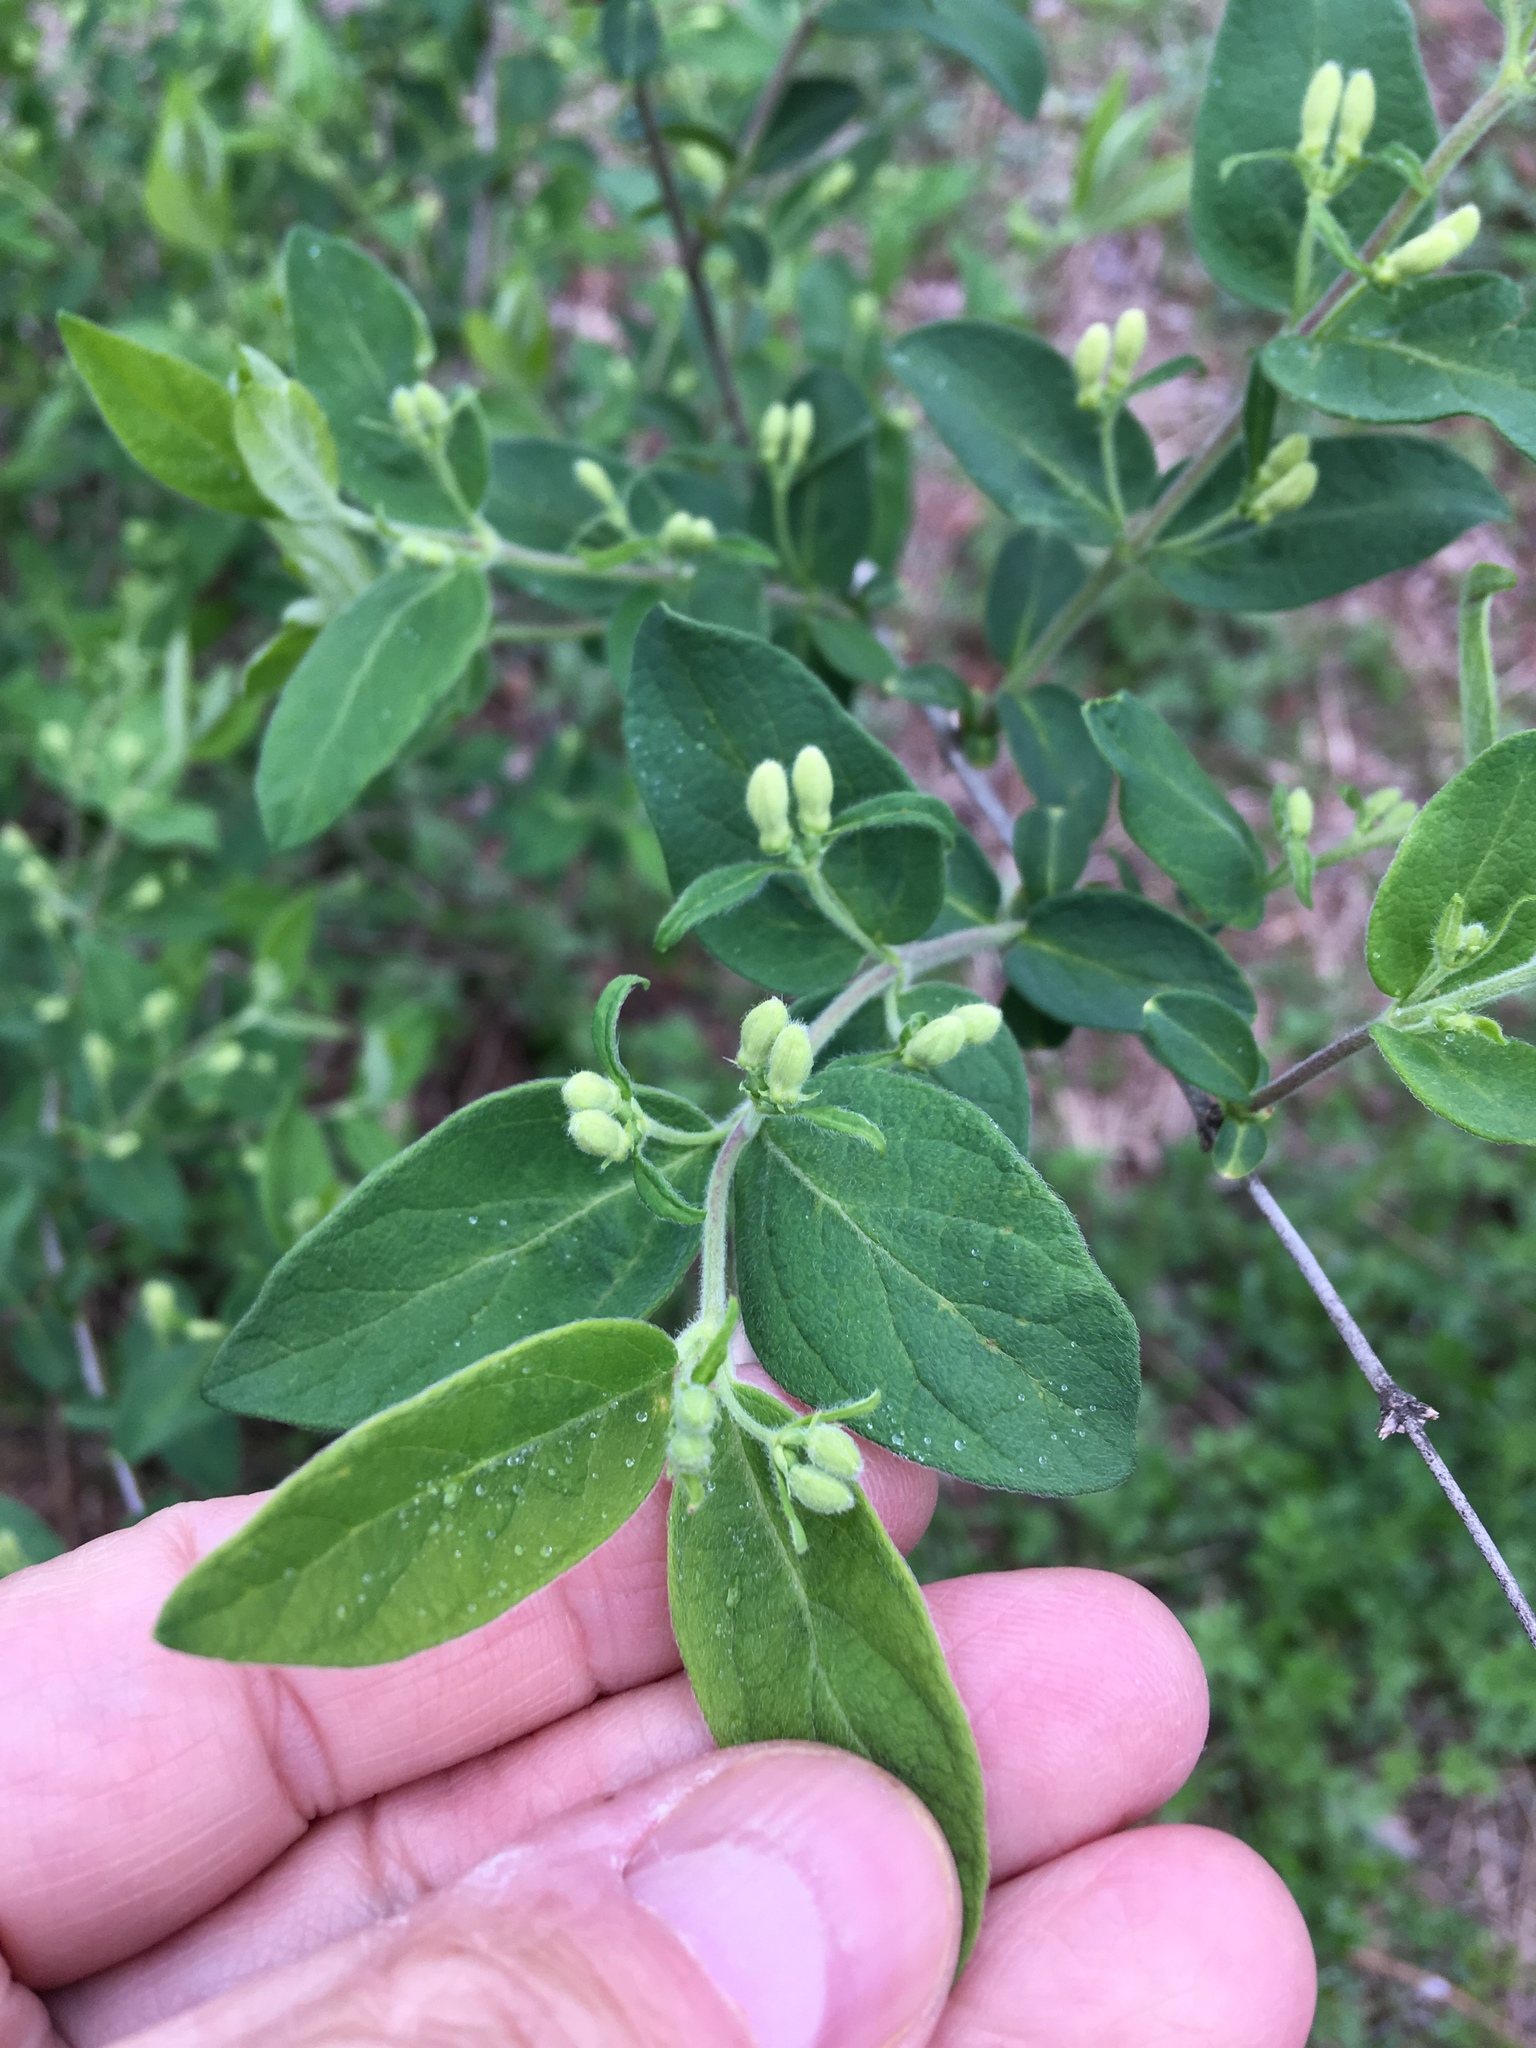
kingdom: Plantae
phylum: Tracheophyta
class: Magnoliopsida
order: Dipsacales
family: Caprifoliaceae
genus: Lonicera
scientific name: Lonicera morrowii
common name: Morrow's honeysuckle
